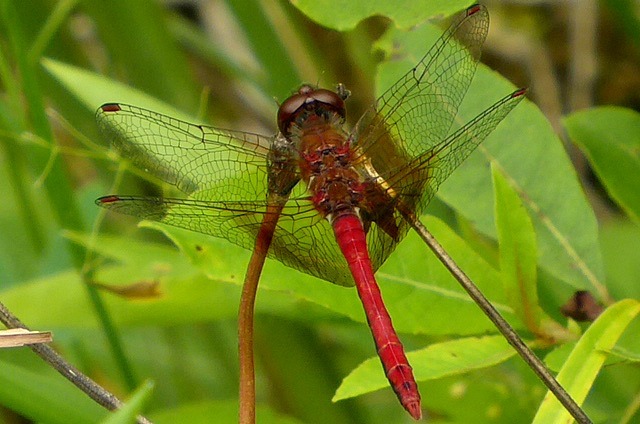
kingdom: Animalia
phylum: Arthropoda
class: Insecta
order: Odonata
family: Libellulidae
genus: Sympetrum
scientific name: Sympetrum semicinctum
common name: Band-winged meadowhawk
